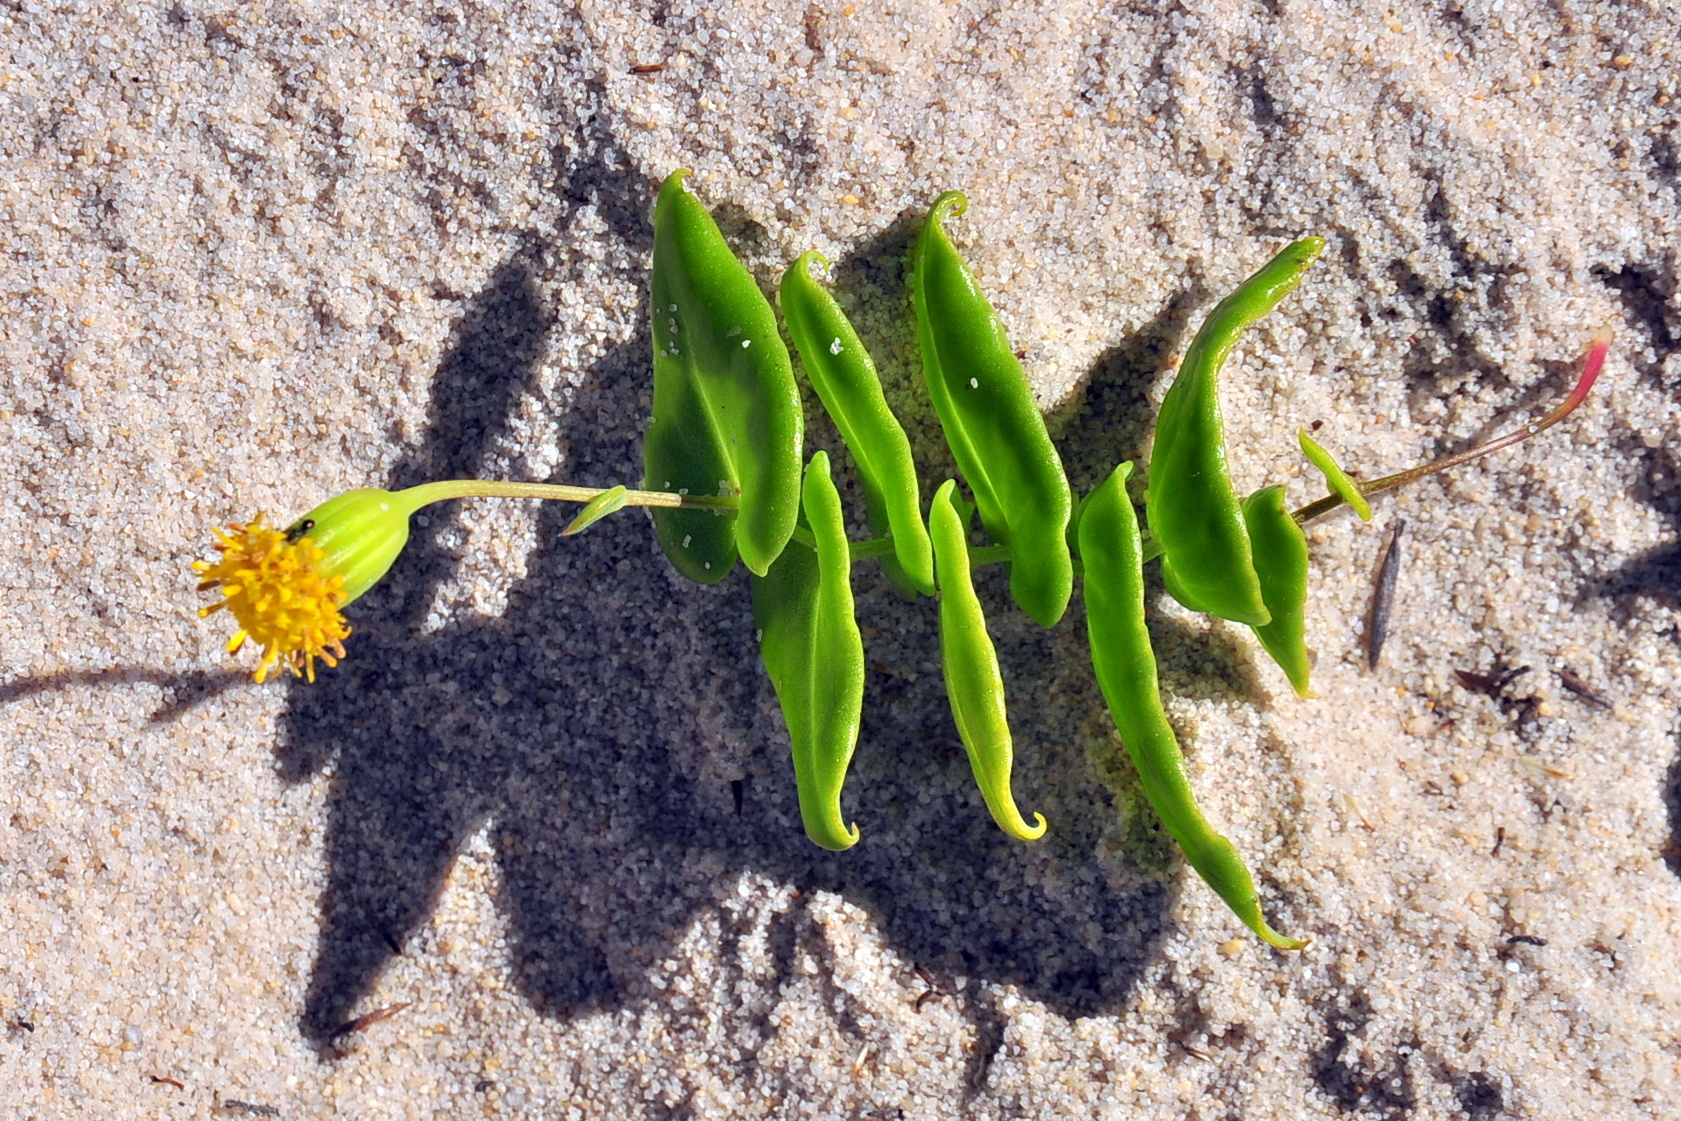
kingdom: Plantae
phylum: Tracheophyta
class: Magnoliopsida
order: Asterales
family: Asteraceae
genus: Othonna
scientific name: Othonna undulosa
